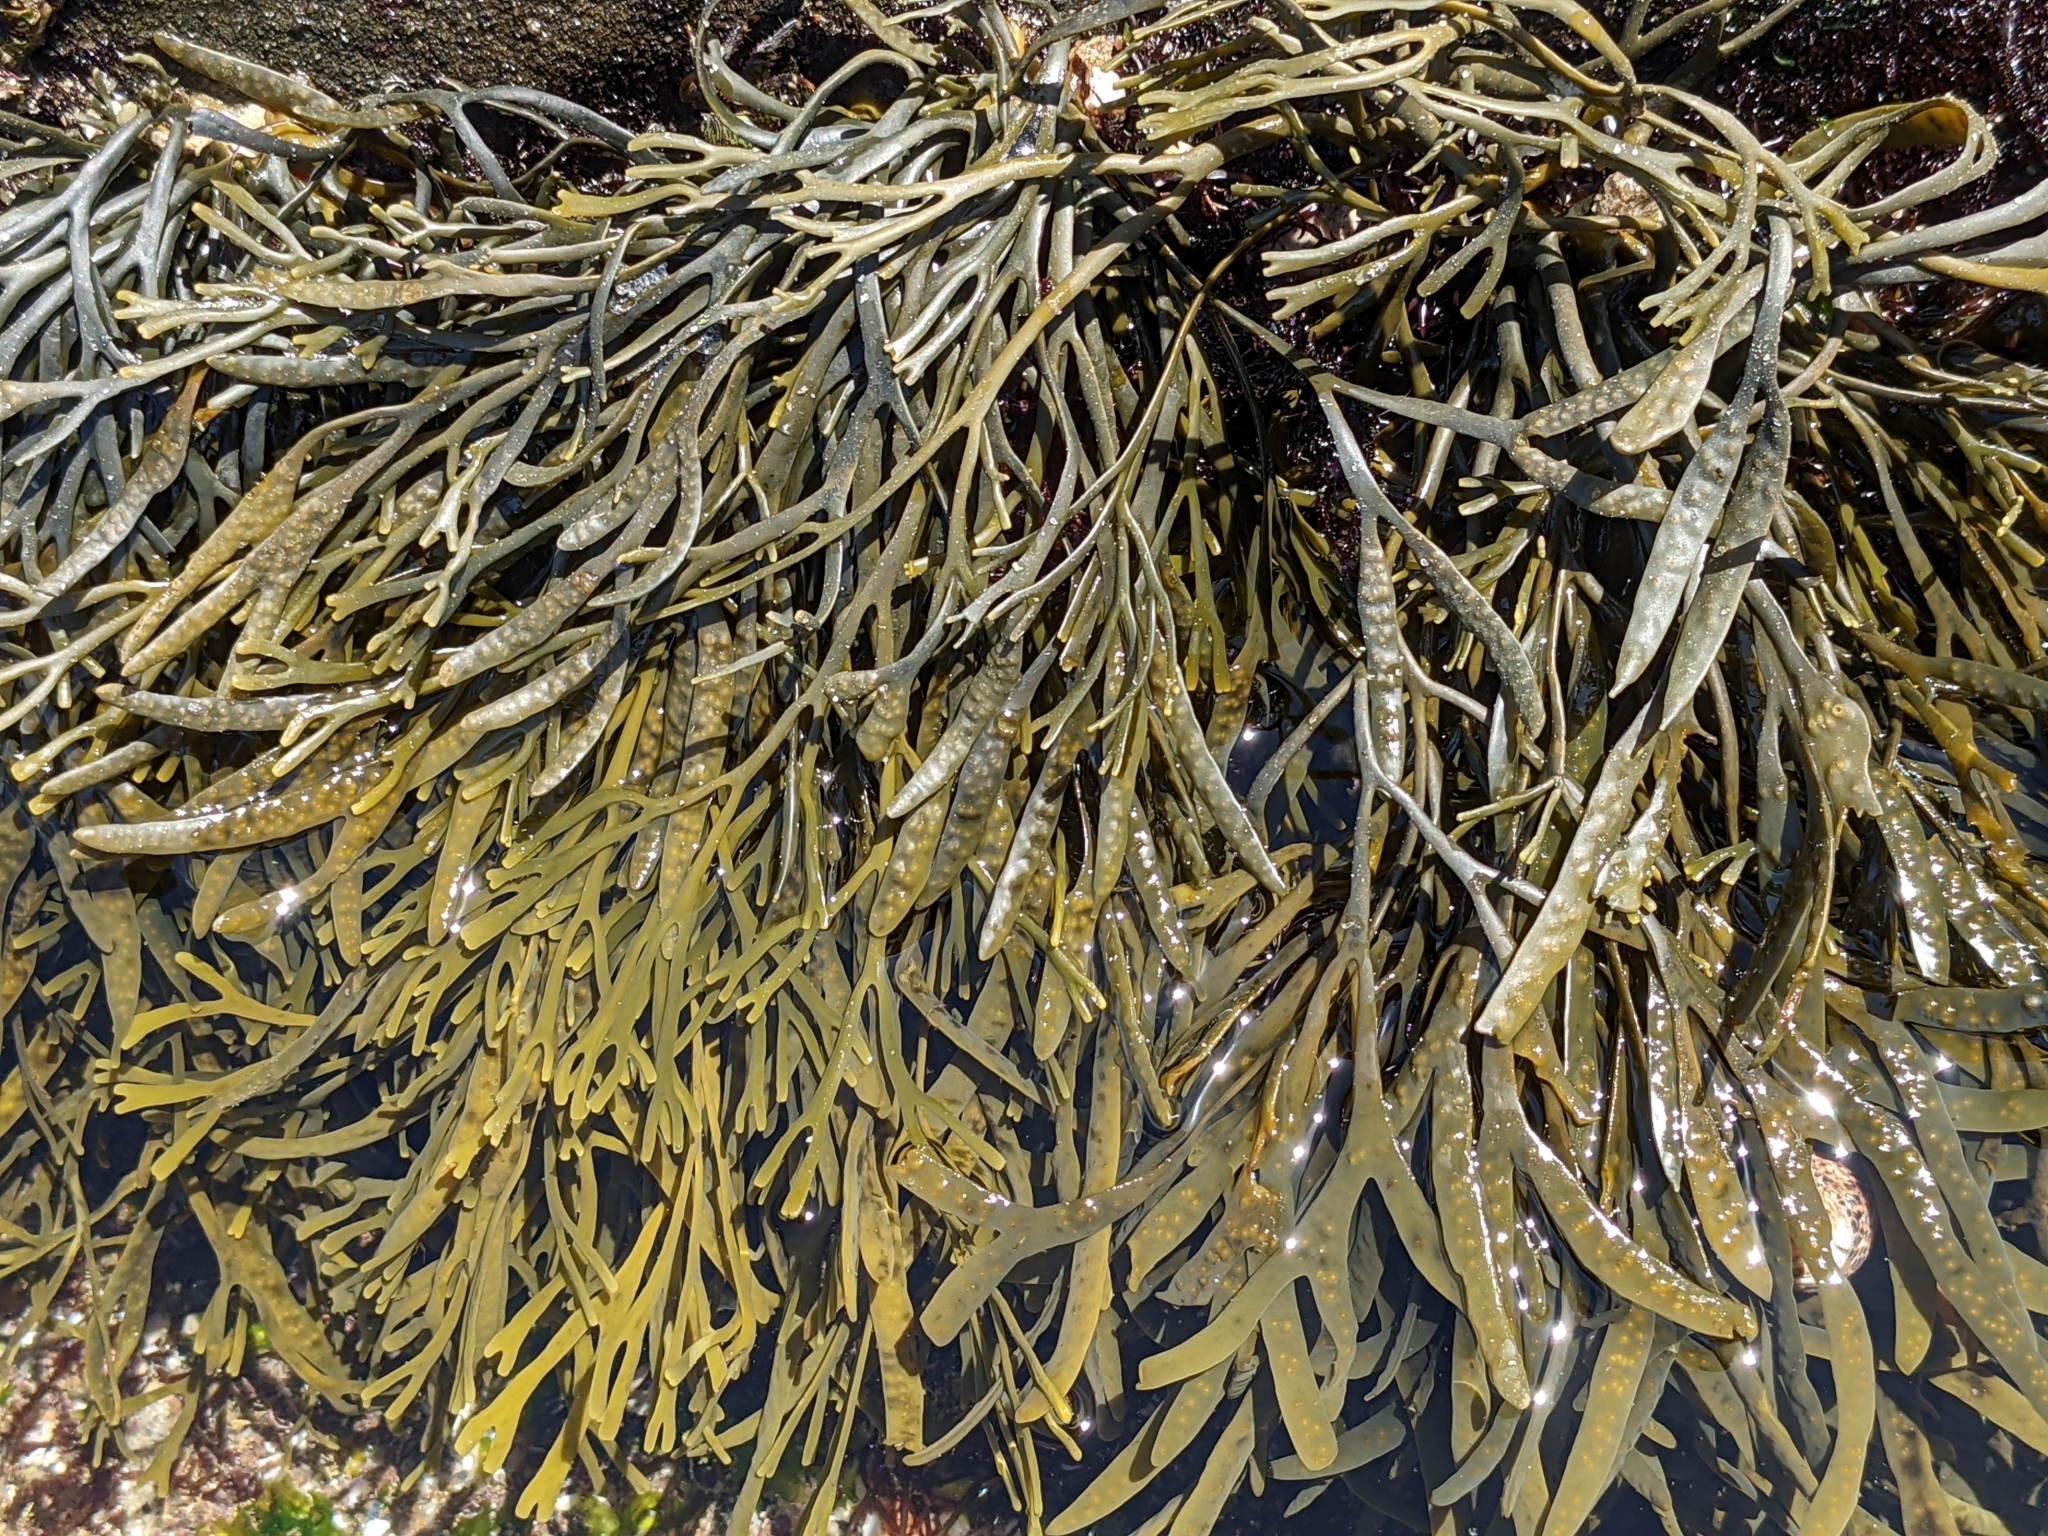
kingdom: Chromista
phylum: Ochrophyta
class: Phaeophyceae
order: Fucales
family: Fucaceae
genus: Silvetia
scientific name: Silvetia
